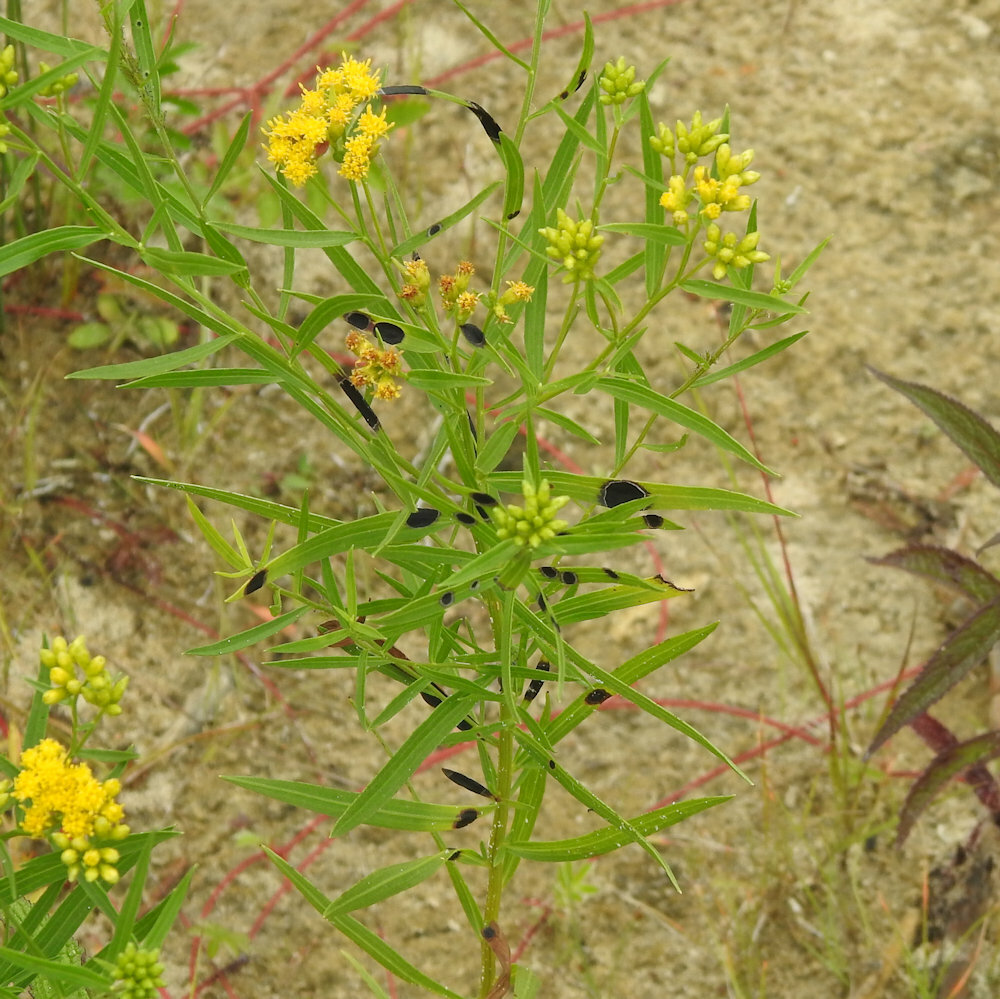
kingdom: Animalia
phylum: Arthropoda
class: Insecta
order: Diptera
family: Cecidomyiidae
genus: Asteromyia
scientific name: Asteromyia euthamiae
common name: Euthamia leaf gall midge
